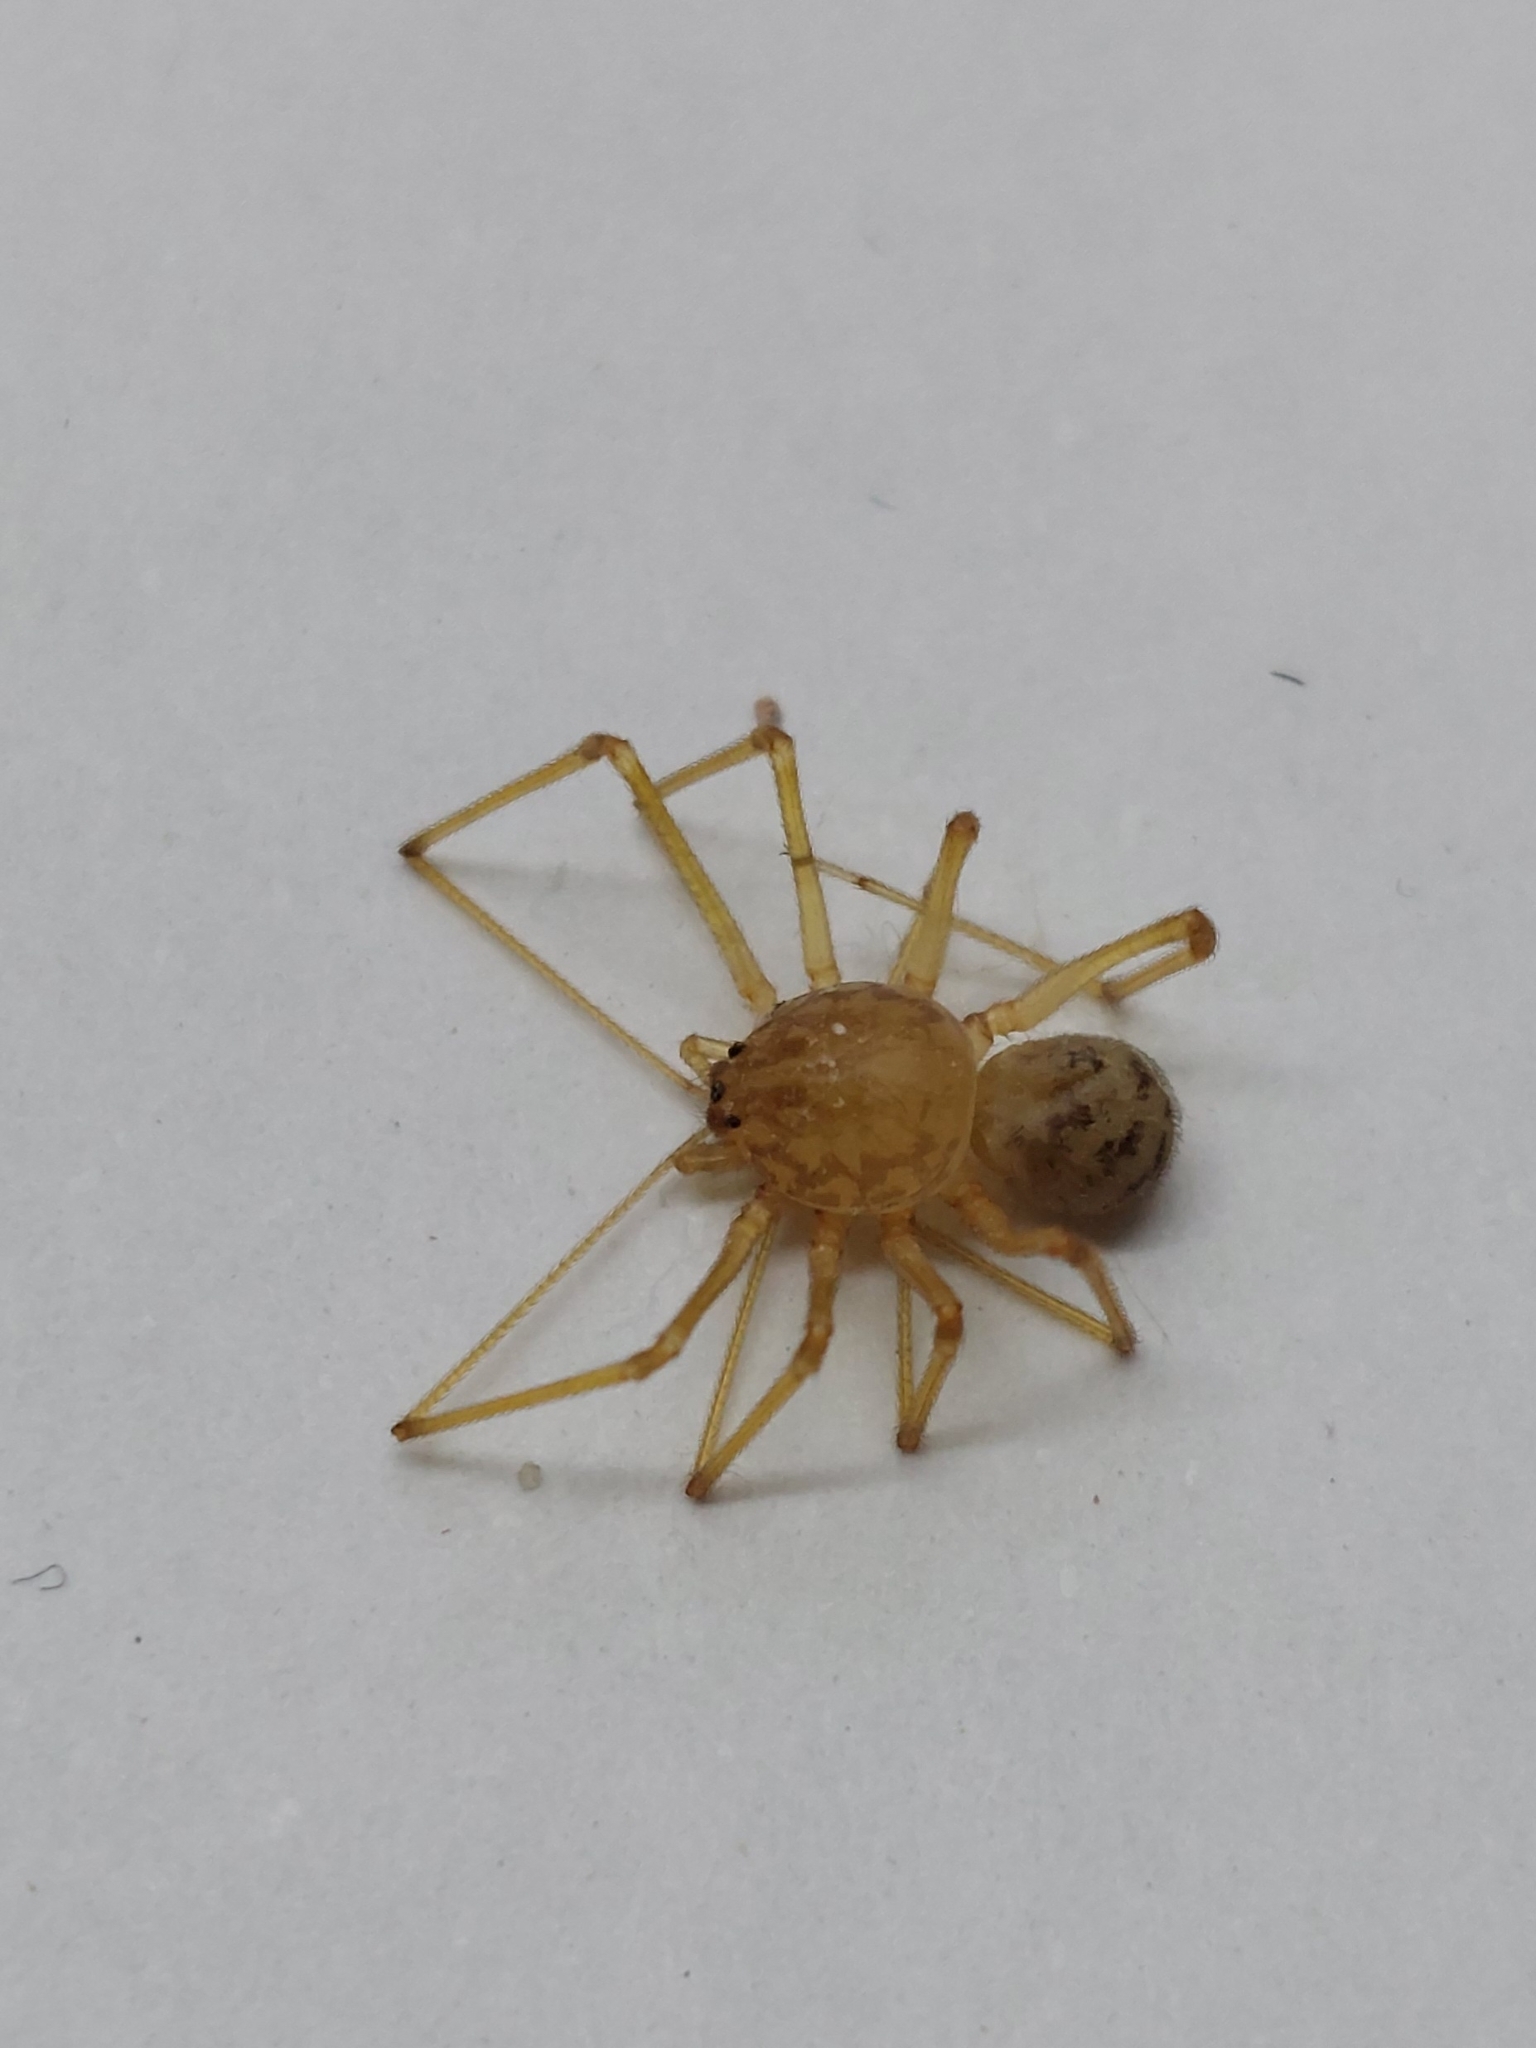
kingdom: Animalia
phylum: Arthropoda
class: Arachnida
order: Araneae
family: Scytodidae
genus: Scytodes
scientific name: Scytodes univittata
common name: Spitting spider
